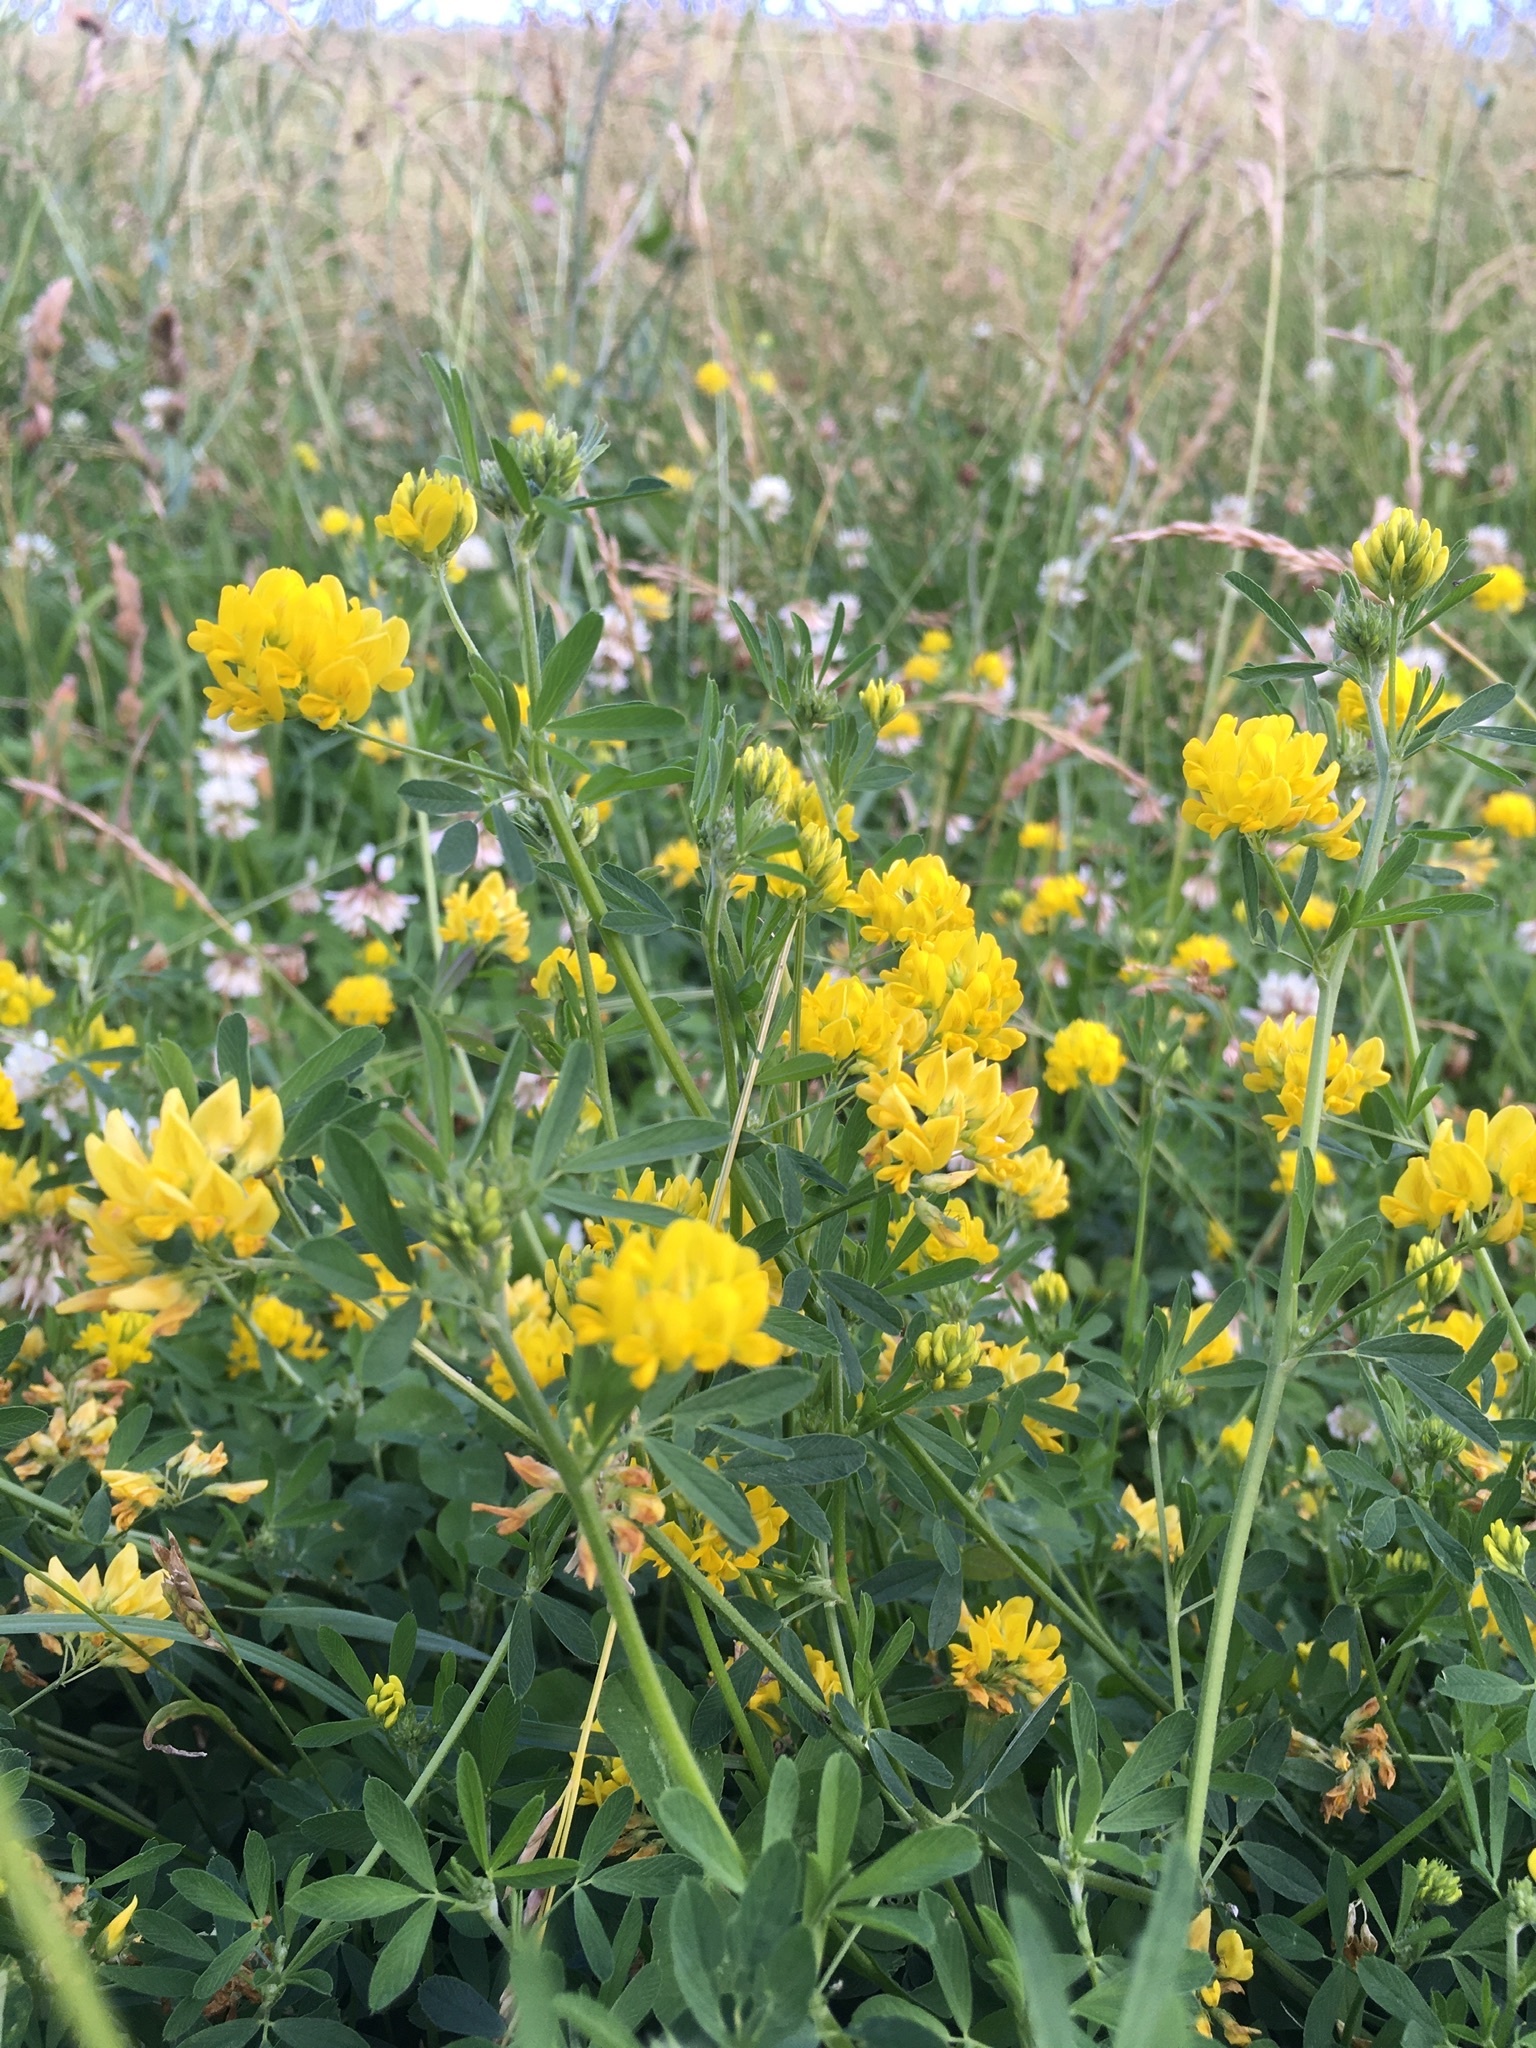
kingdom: Plantae
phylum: Tracheophyta
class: Magnoliopsida
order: Fabales
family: Fabaceae
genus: Medicago
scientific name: Medicago falcata
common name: Sickle medick
